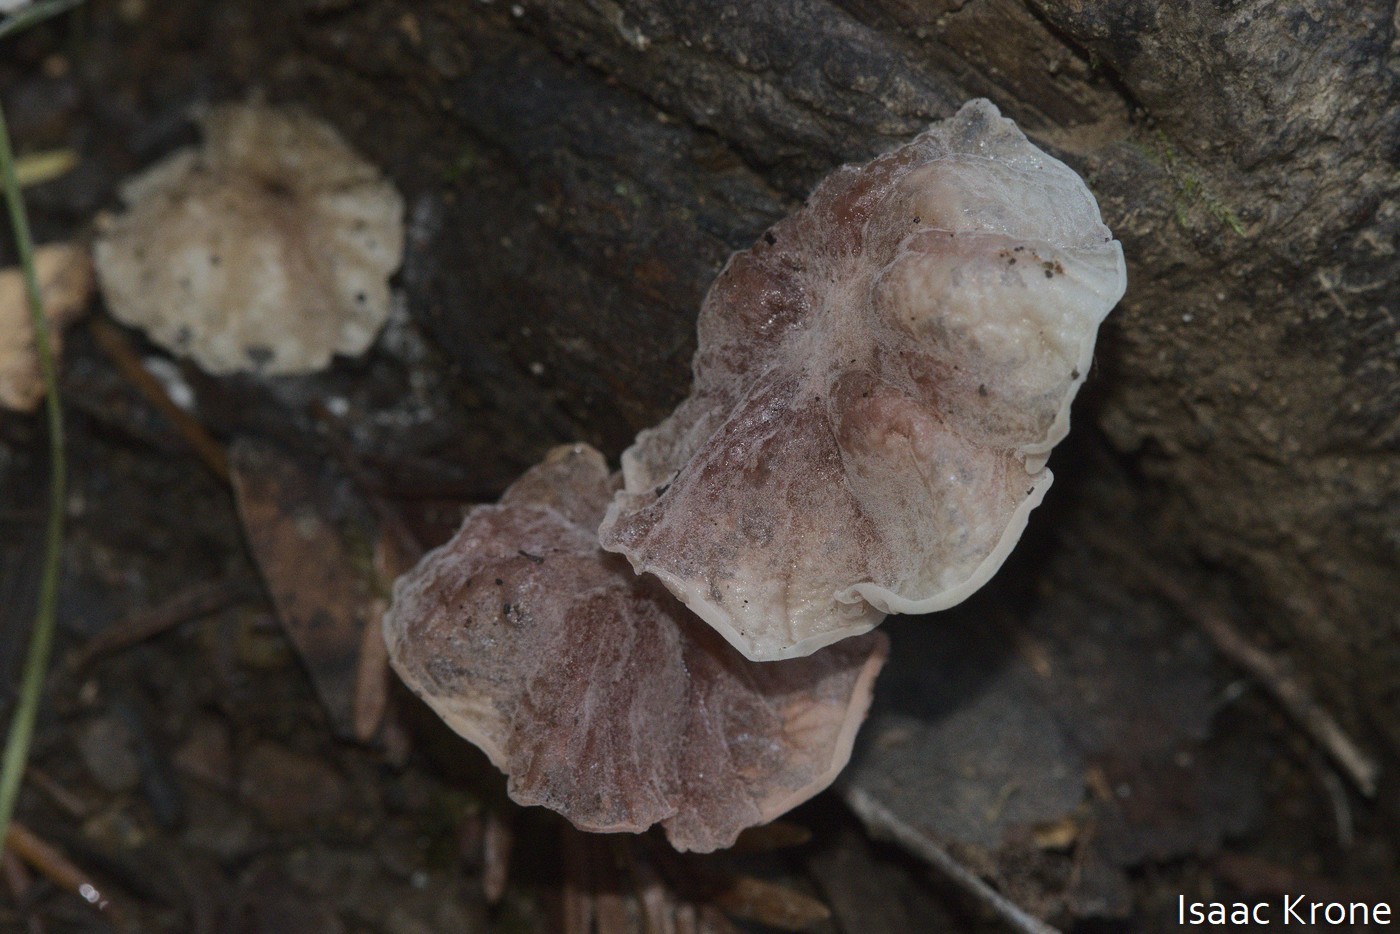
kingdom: Fungi
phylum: Basidiomycota
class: Agaricomycetes
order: Agaricales
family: Omphalotaceae
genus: Marasmiellus
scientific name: Marasmiellus candidus
